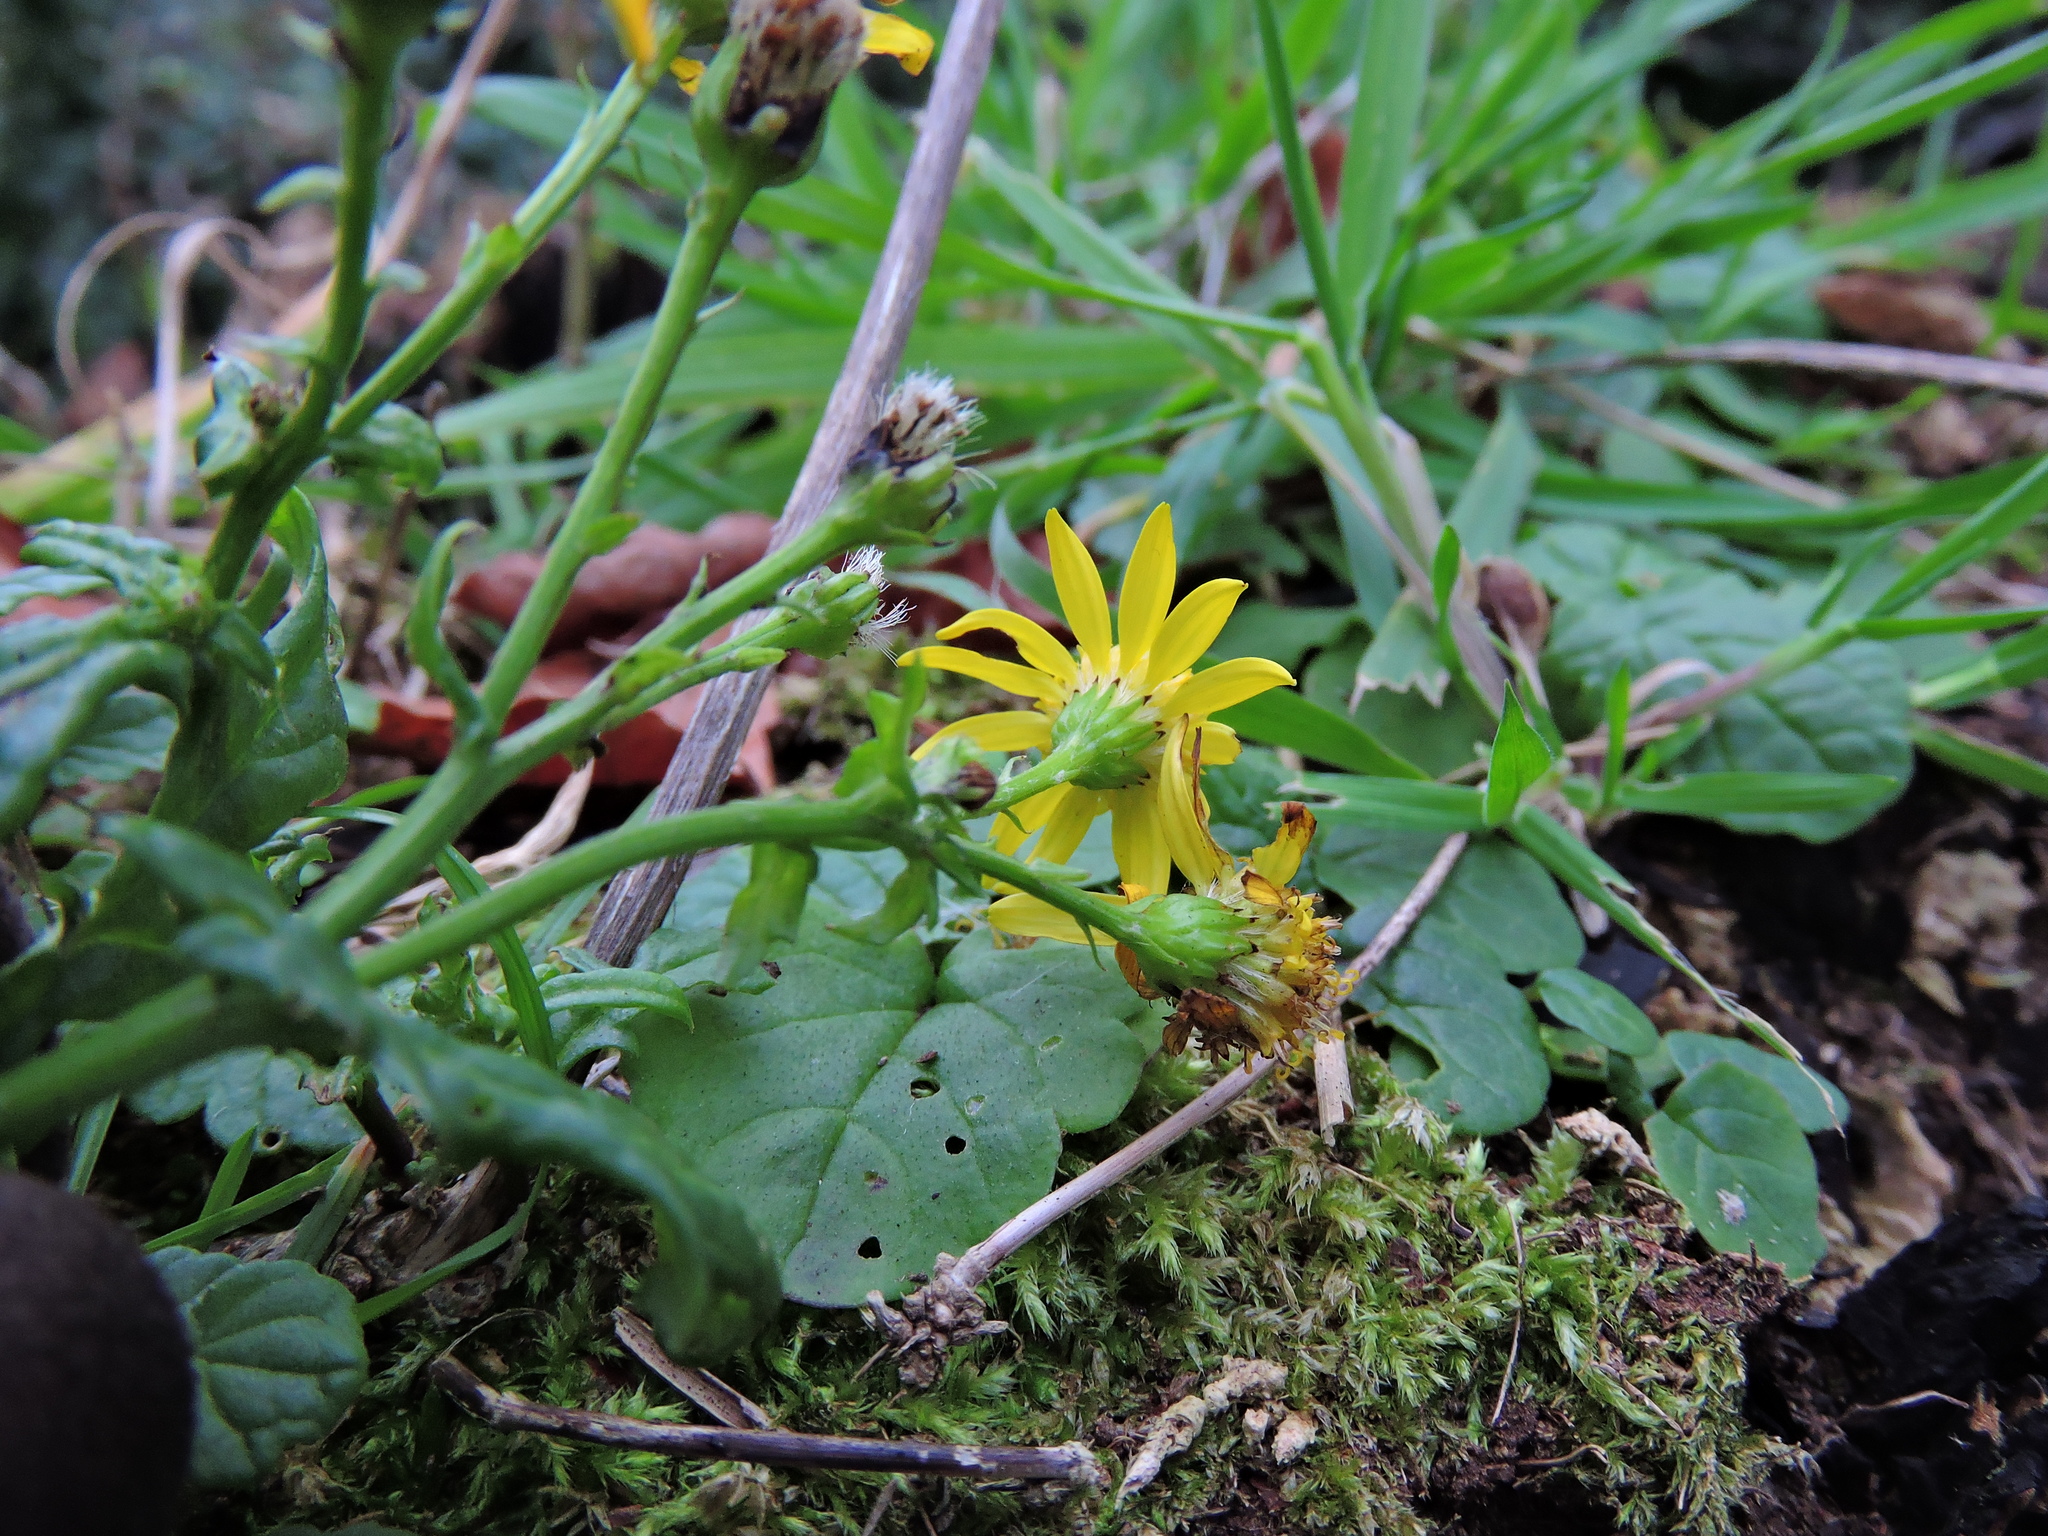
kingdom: Plantae
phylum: Tracheophyta
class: Magnoliopsida
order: Asterales
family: Asteraceae
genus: Jacobaea
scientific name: Jacobaea vulgaris
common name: Stinking willie
